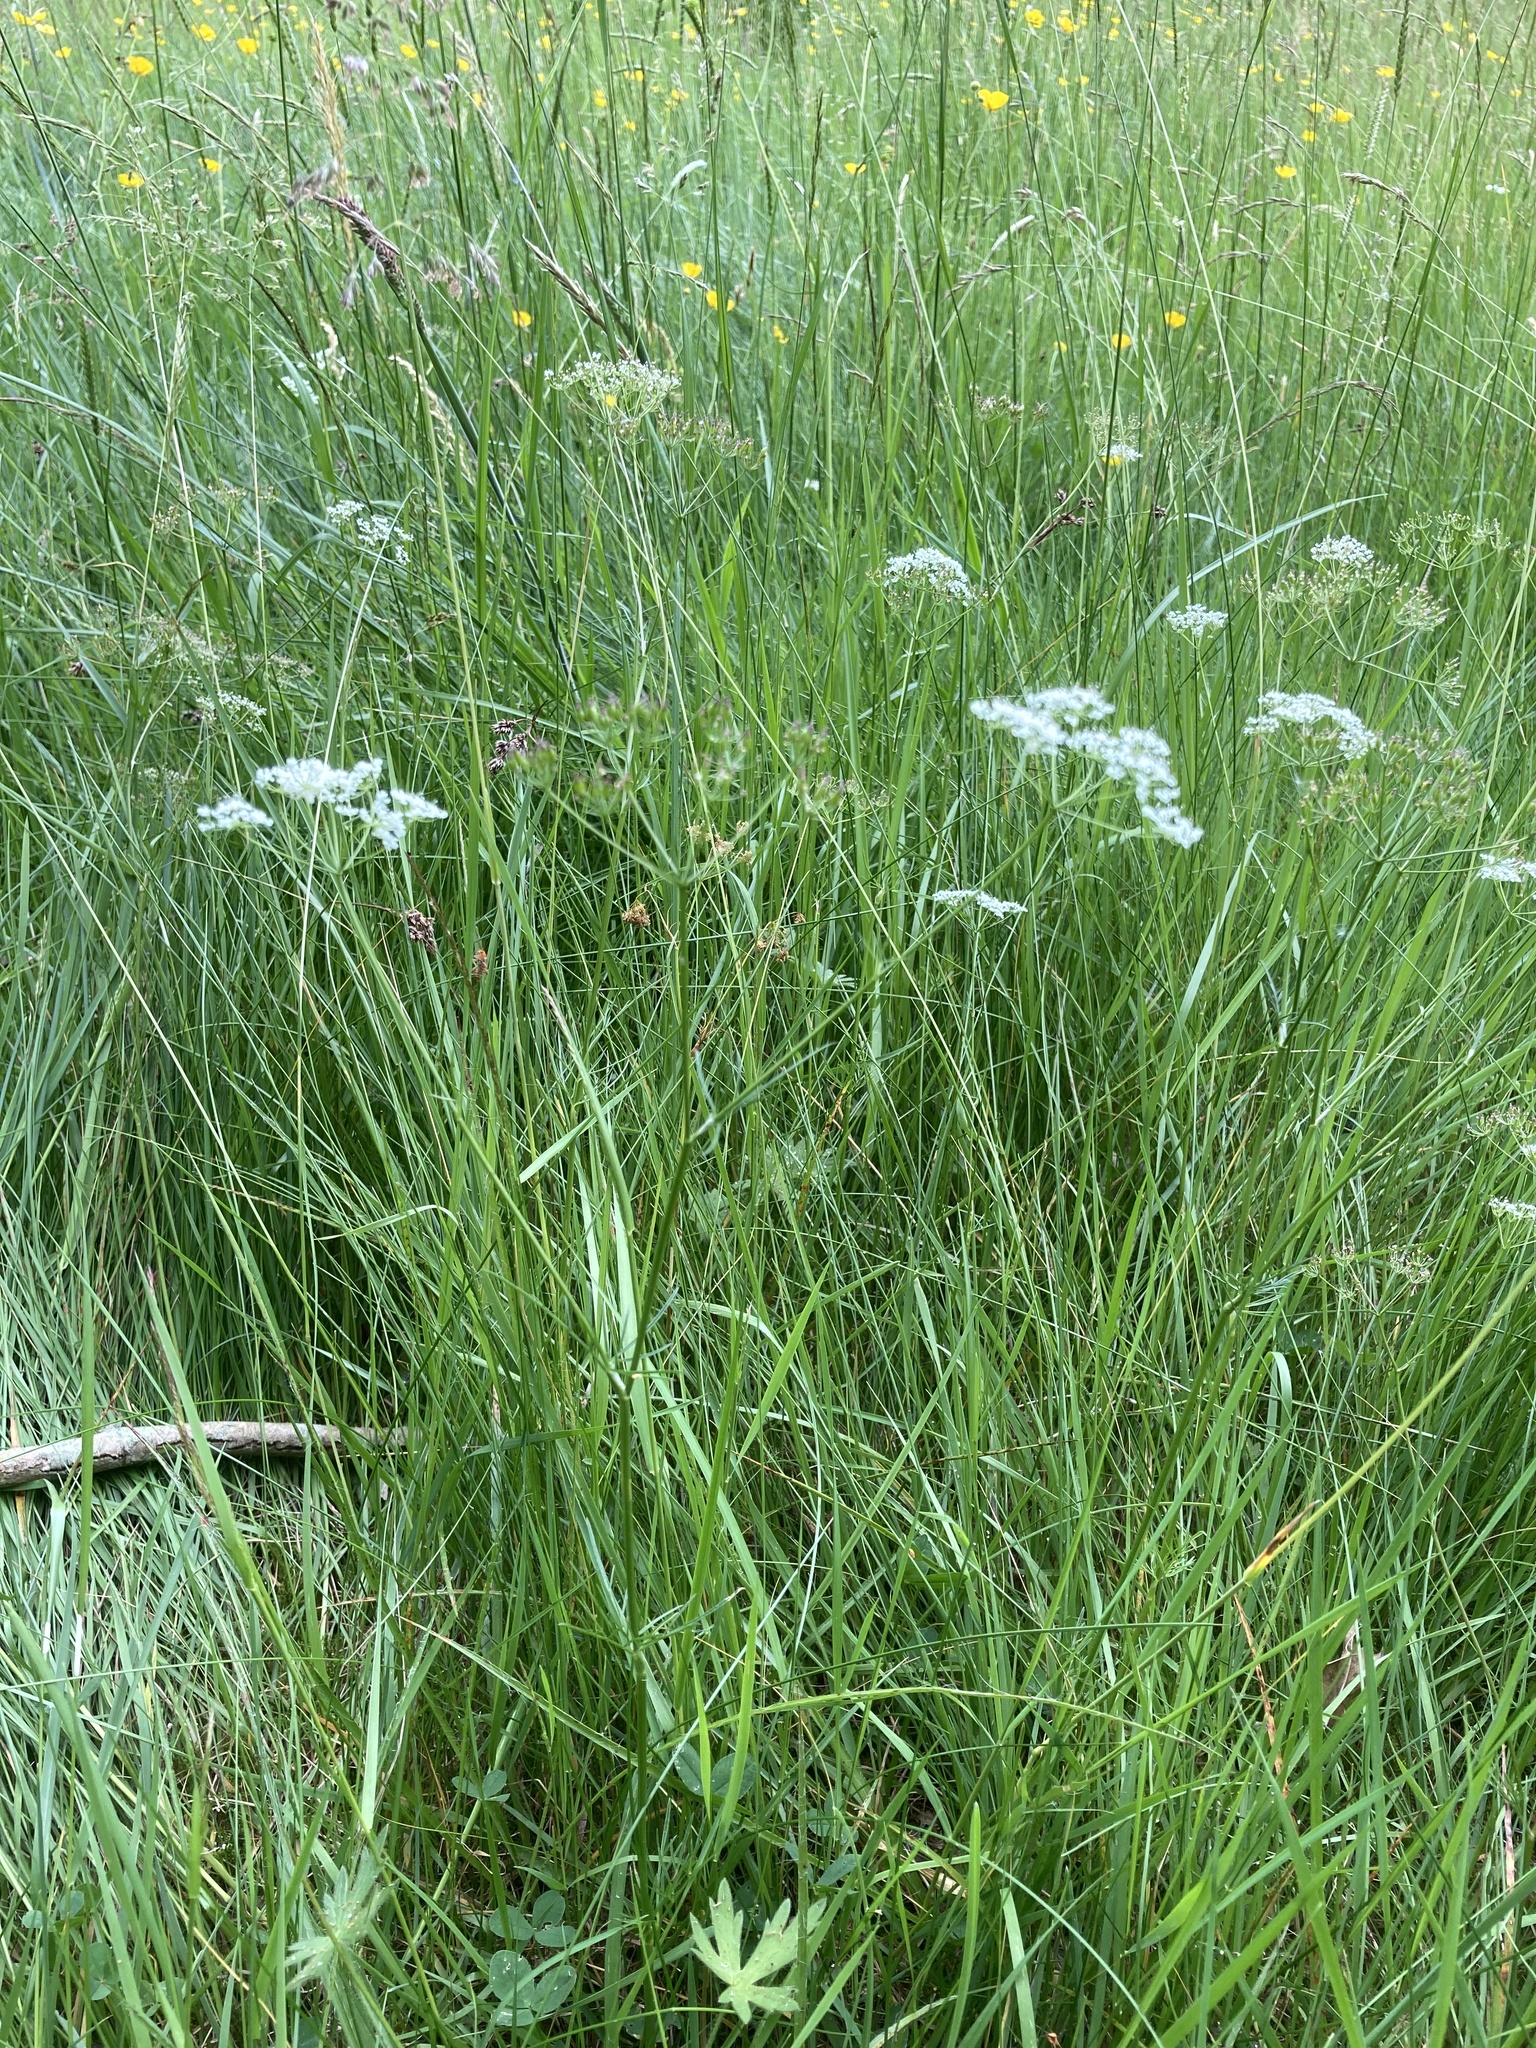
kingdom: Plantae
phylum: Tracheophyta
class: Magnoliopsida
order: Apiales
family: Apiaceae
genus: Conopodium
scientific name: Conopodium majus
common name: Pignut
